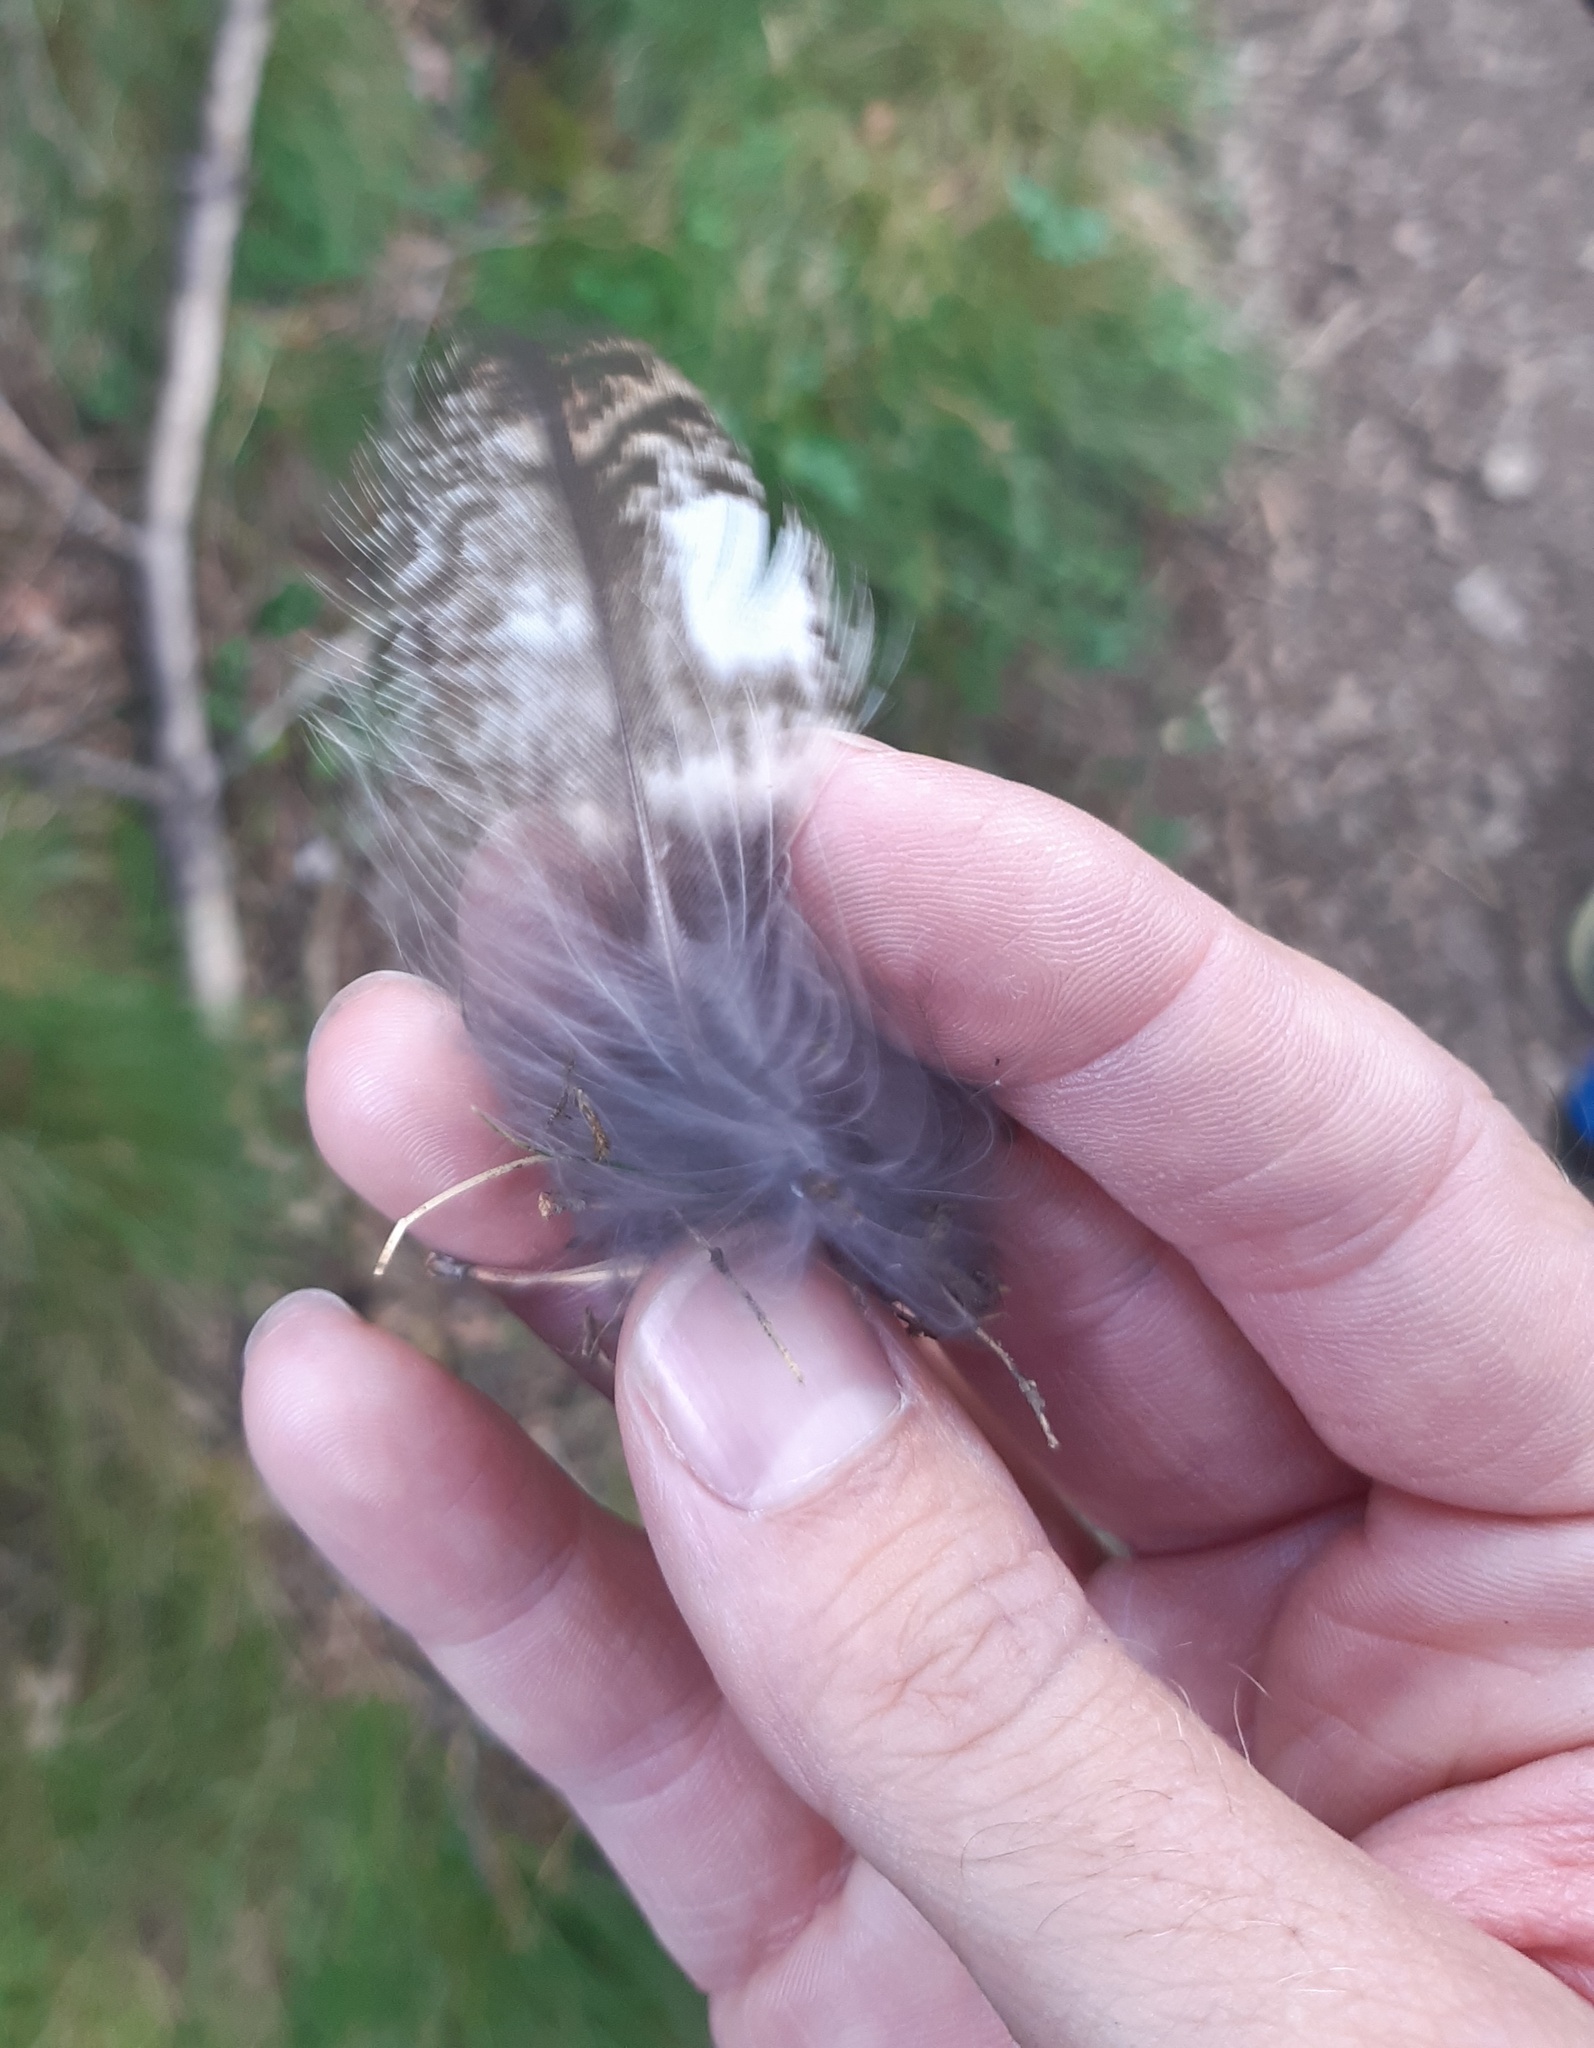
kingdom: Animalia
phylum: Chordata
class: Aves
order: Strigiformes
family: Strigidae
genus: Strix
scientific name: Strix aluco
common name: Tawny owl
